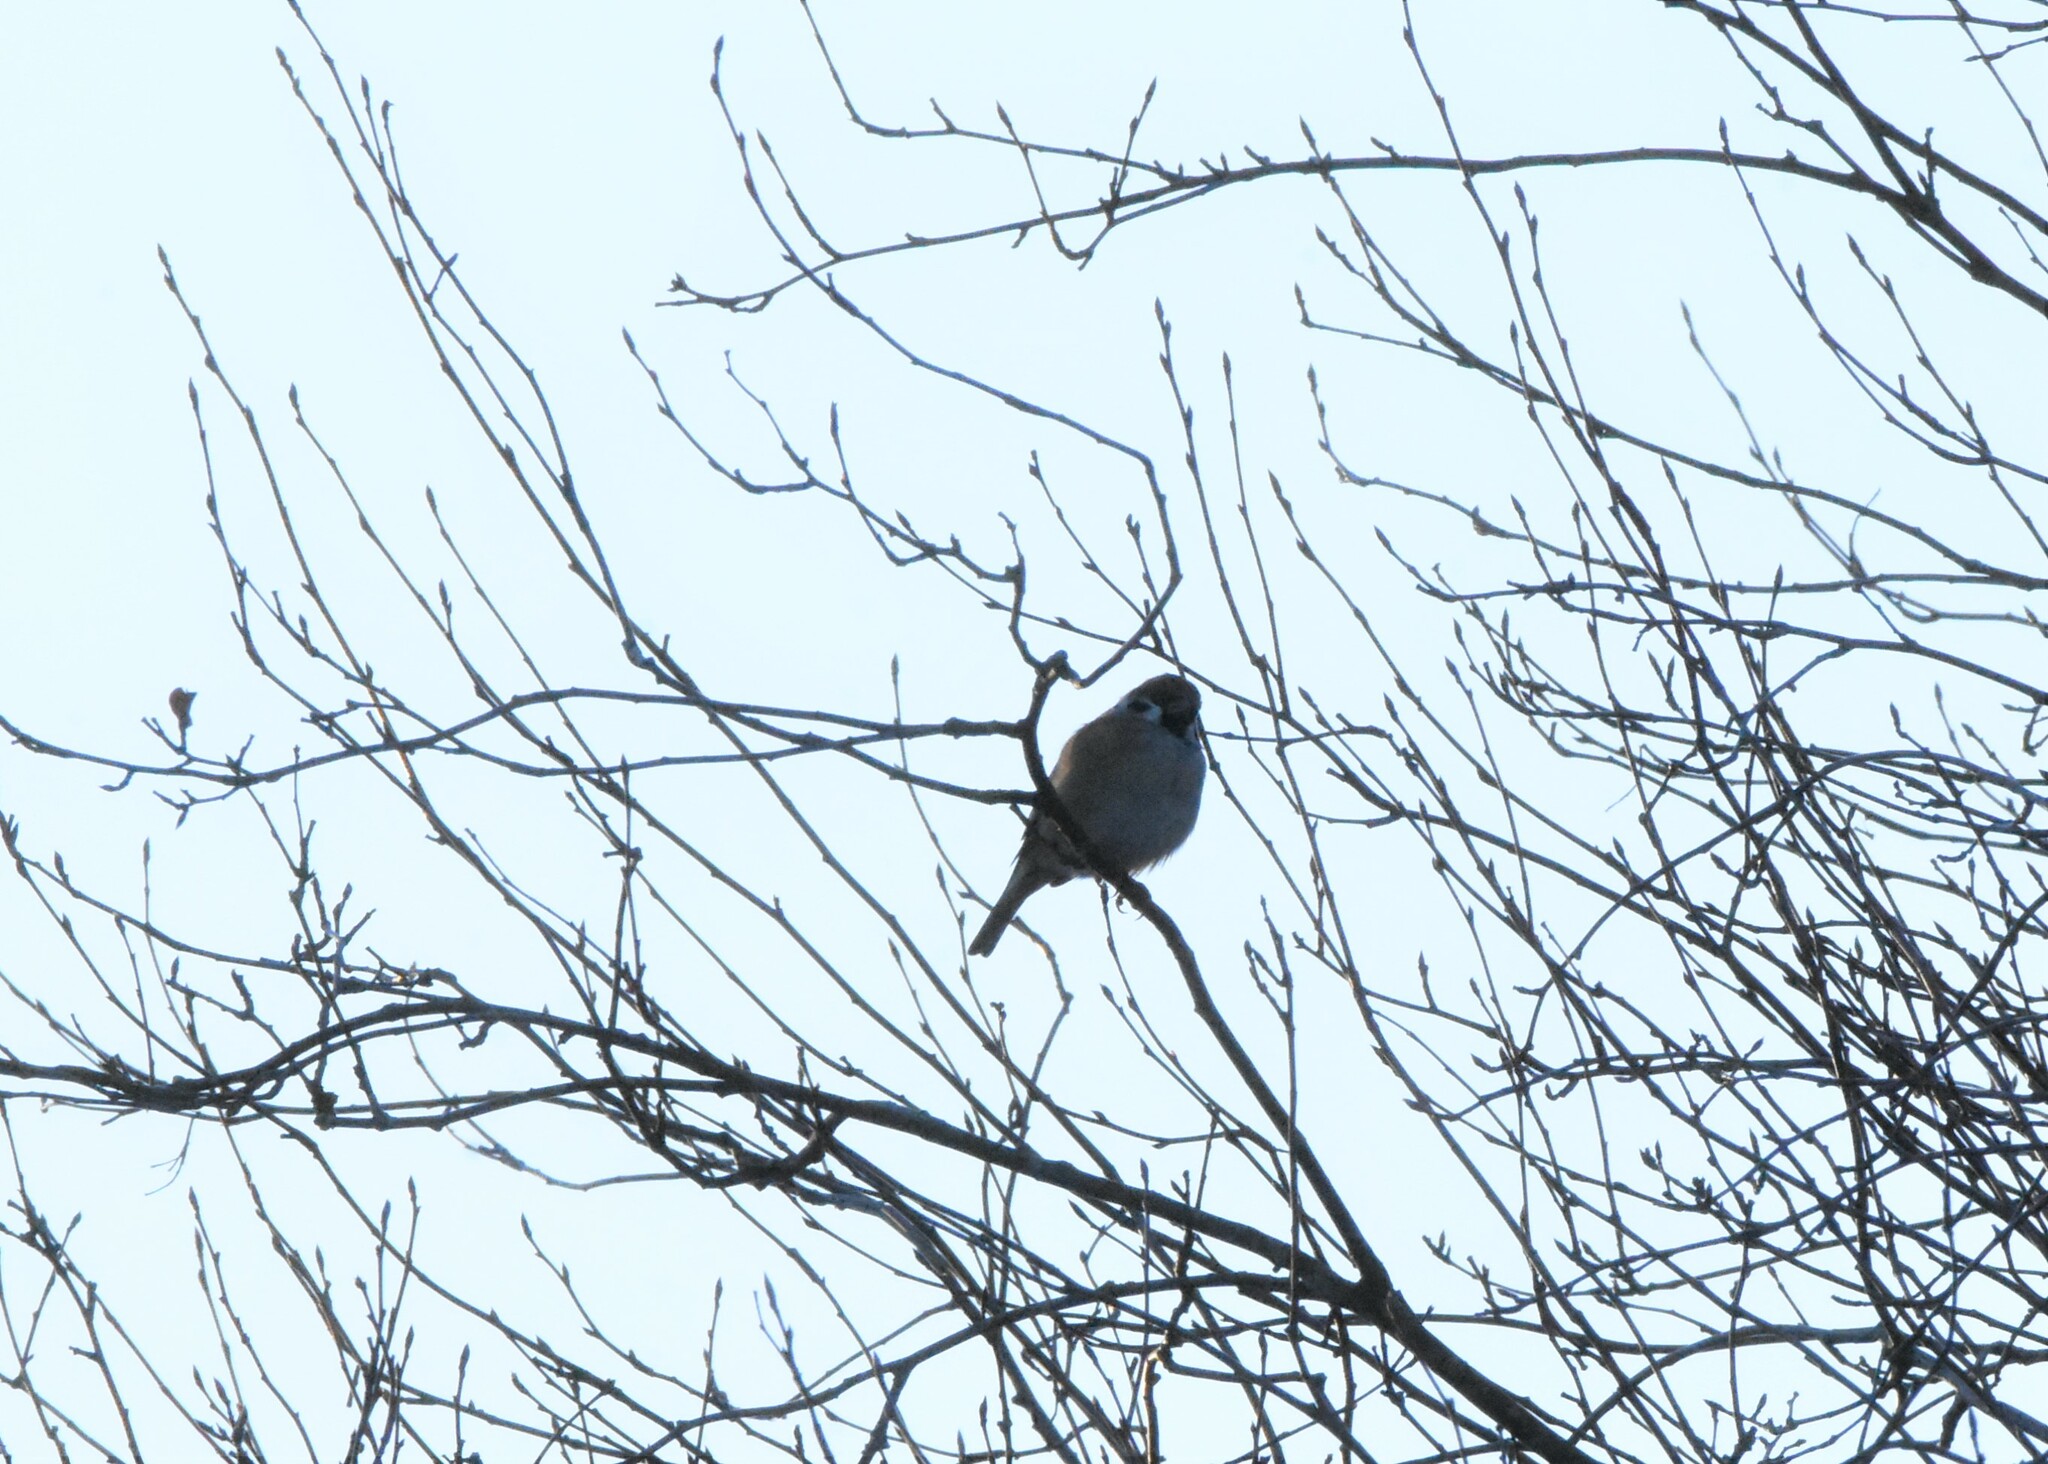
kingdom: Animalia
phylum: Chordata
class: Aves
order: Passeriformes
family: Passeridae
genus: Passer
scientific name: Passer montanus
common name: Eurasian tree sparrow
